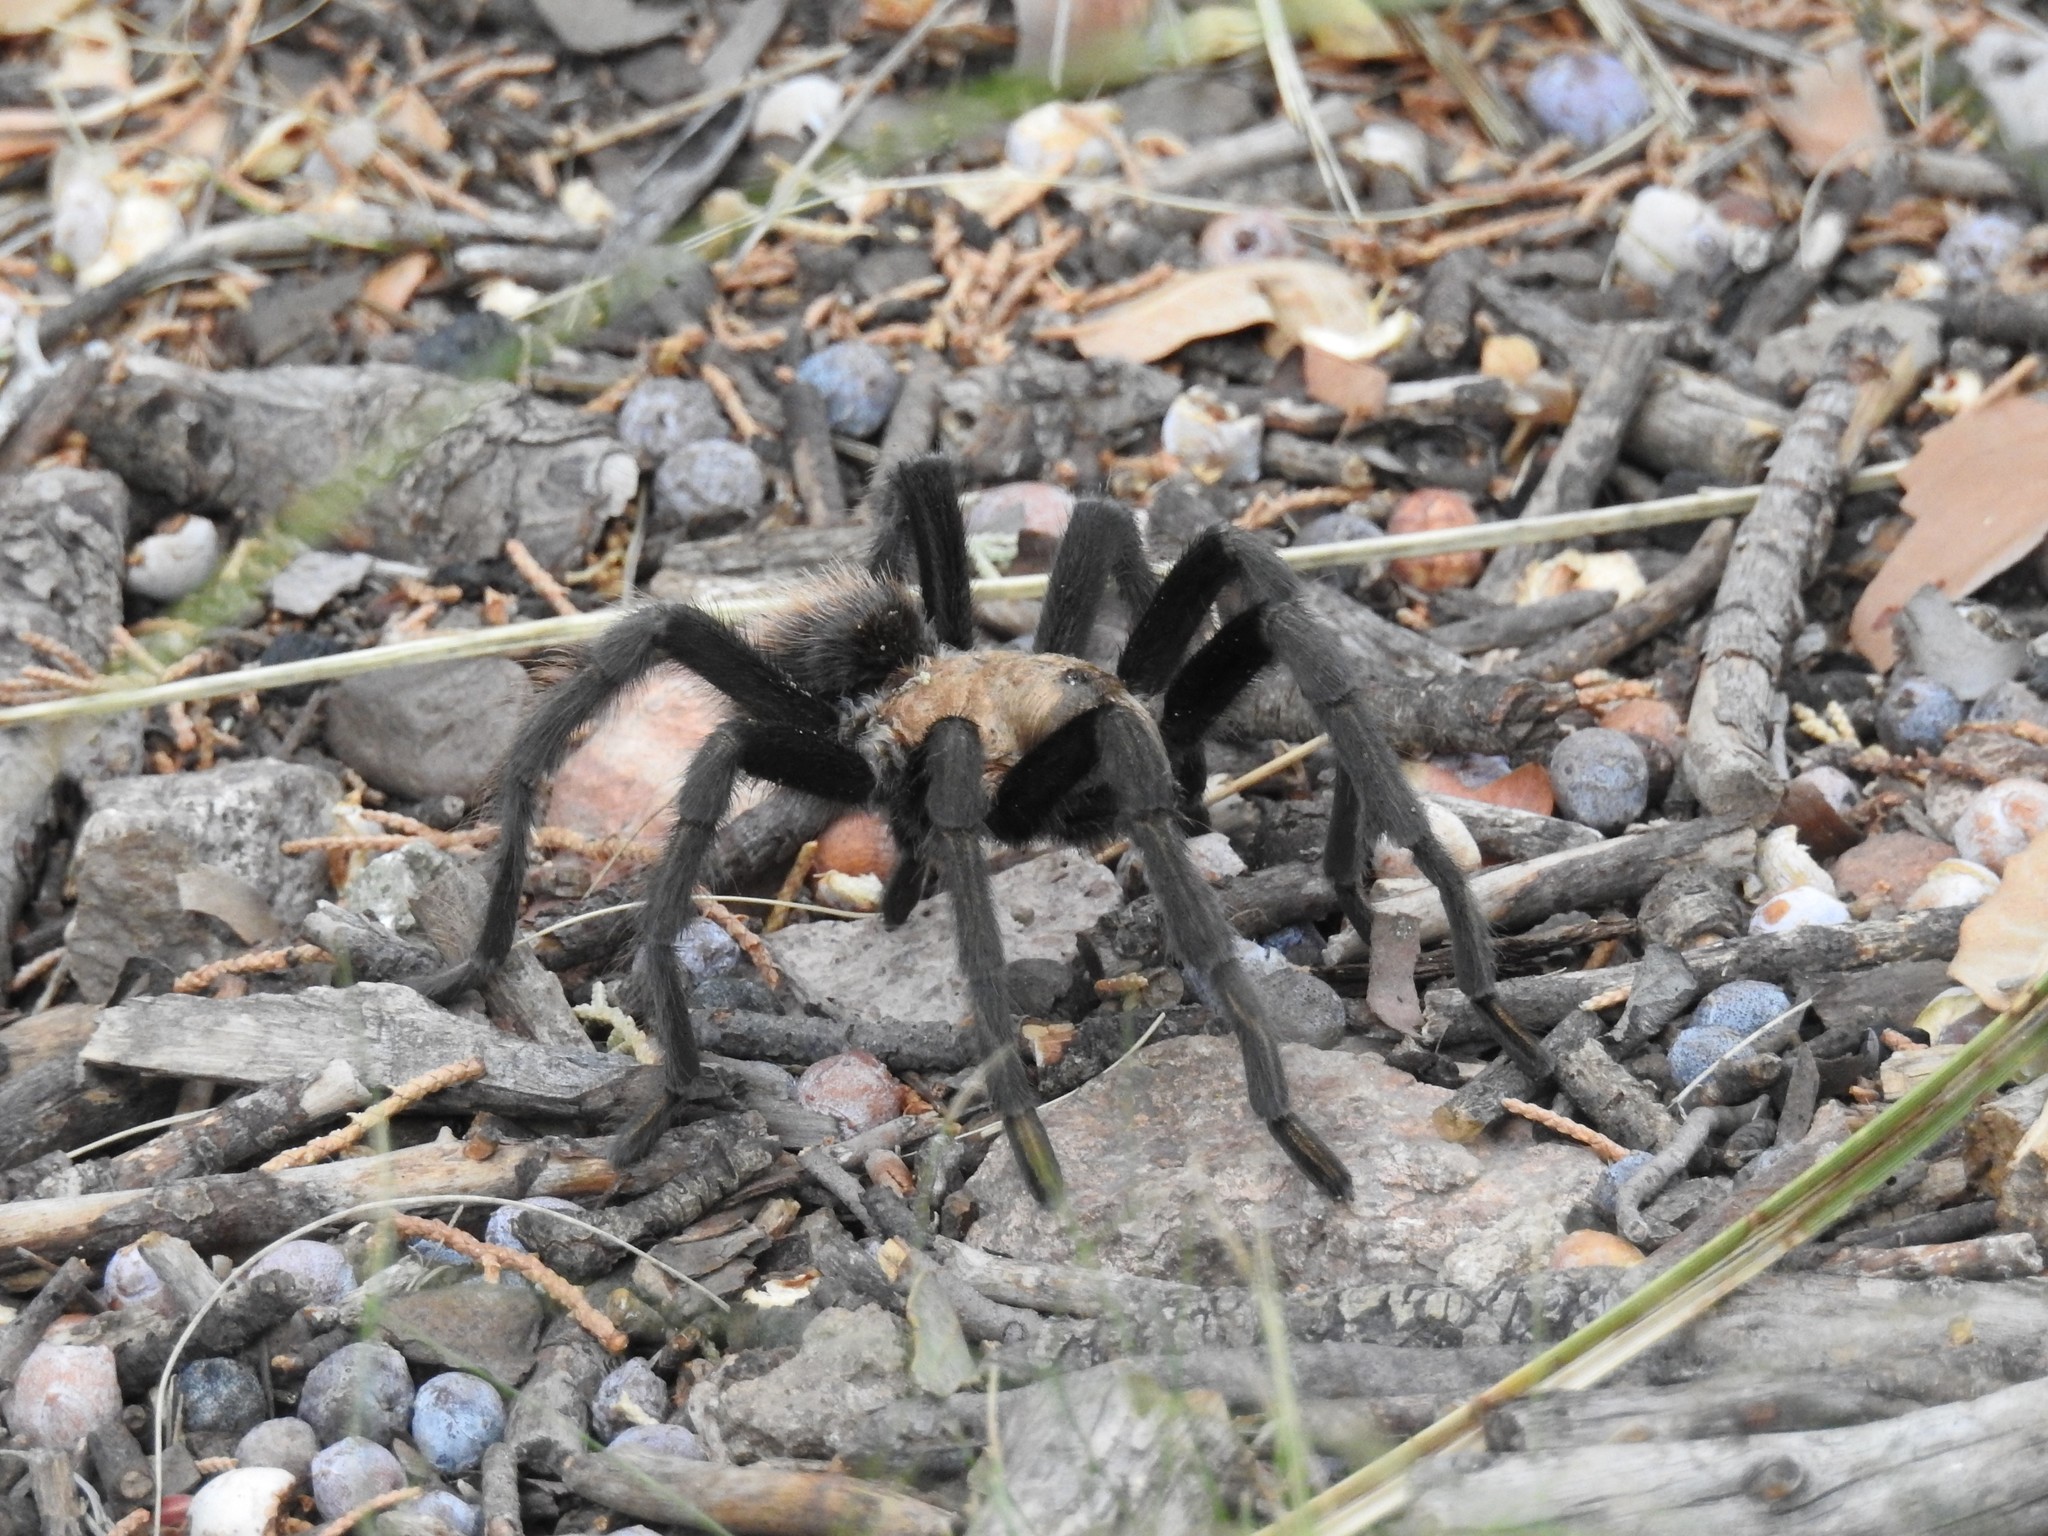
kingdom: Animalia
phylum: Arthropoda
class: Arachnida
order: Araneae
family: Theraphosidae
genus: Aphonopelma
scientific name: Aphonopelma chalcodes
